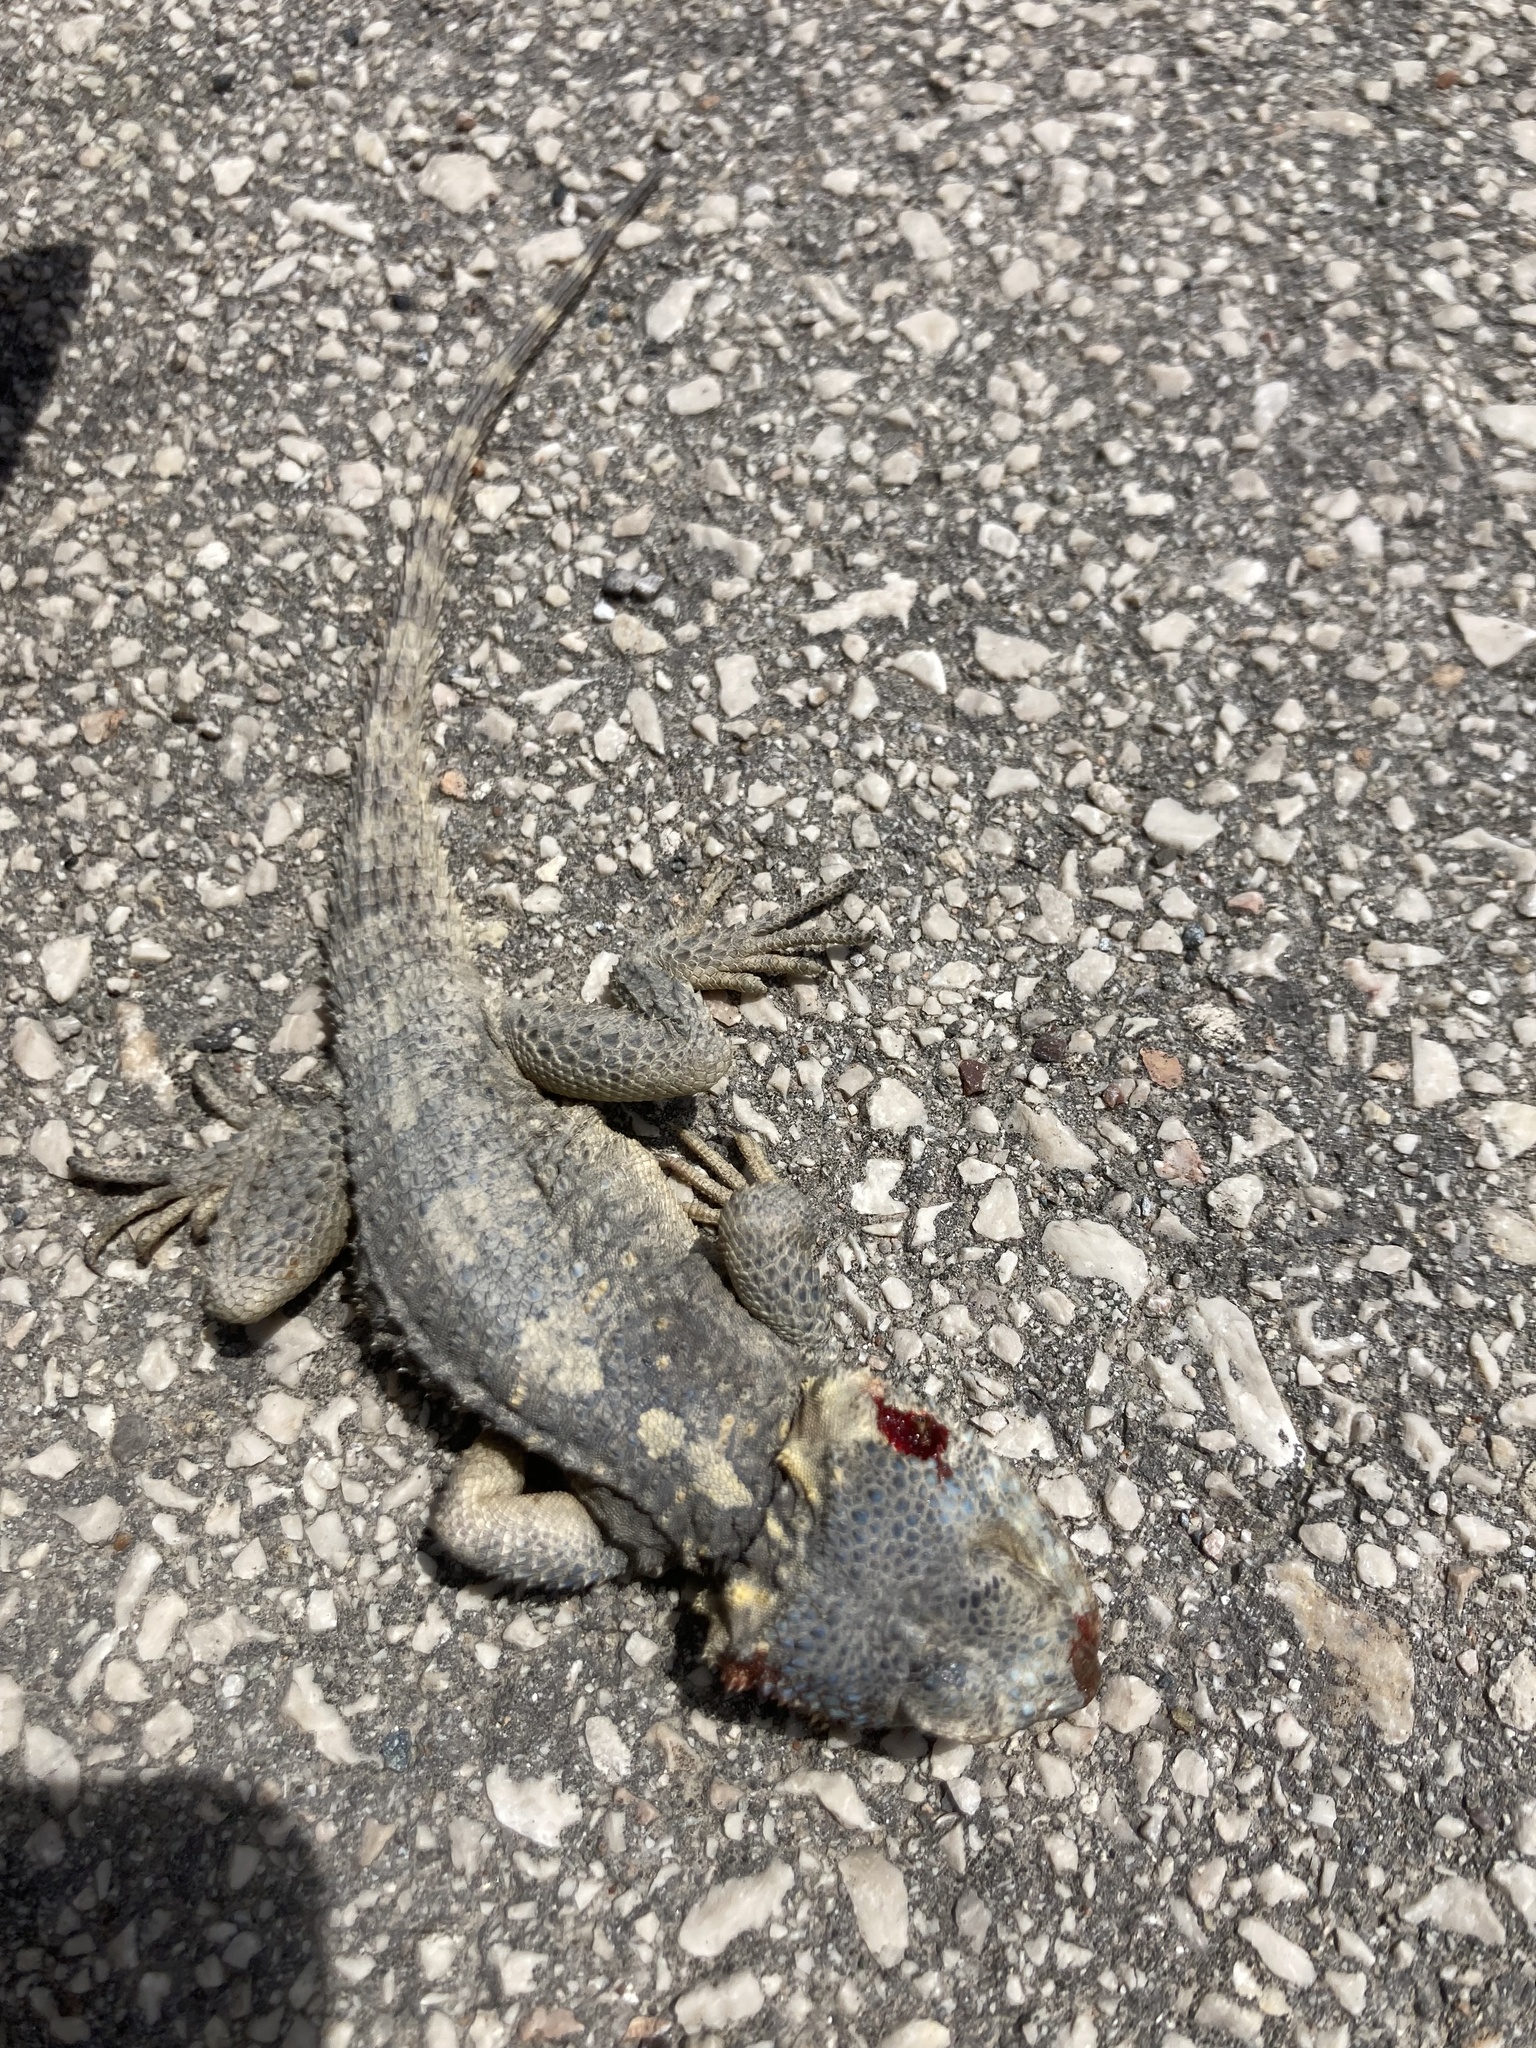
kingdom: Animalia
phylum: Chordata
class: Squamata
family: Agamidae
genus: Stellagama
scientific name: Stellagama stellio
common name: Starred agama
